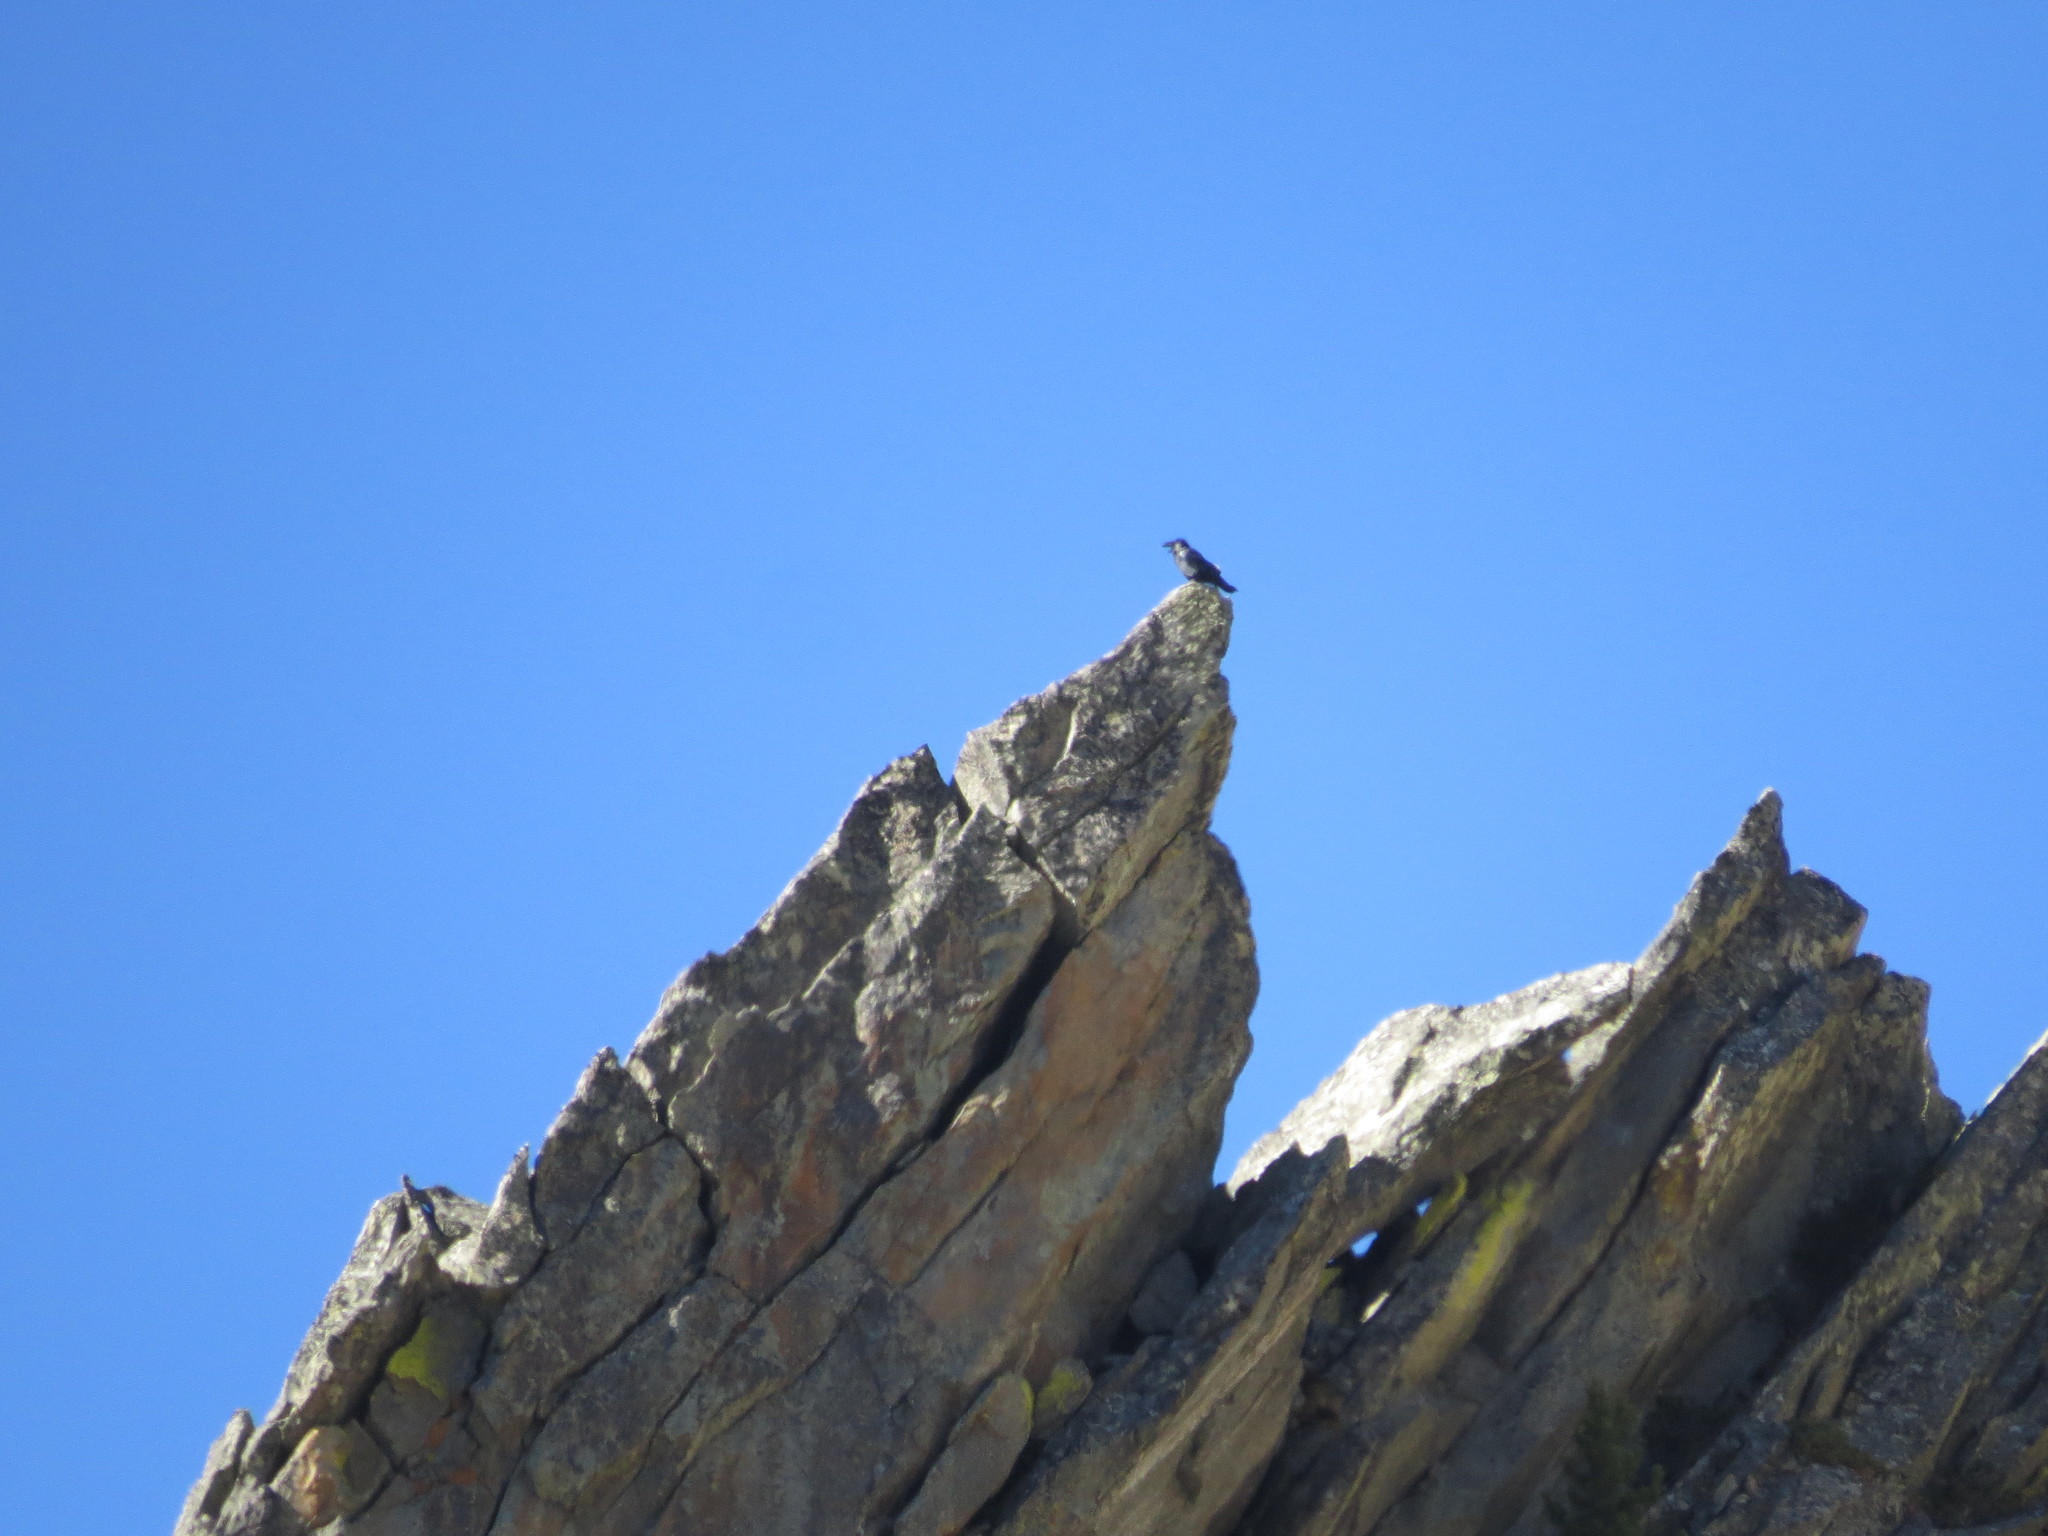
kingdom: Animalia
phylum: Chordata
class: Aves
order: Passeriformes
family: Corvidae
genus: Corvus
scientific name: Corvus corax
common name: Common raven
